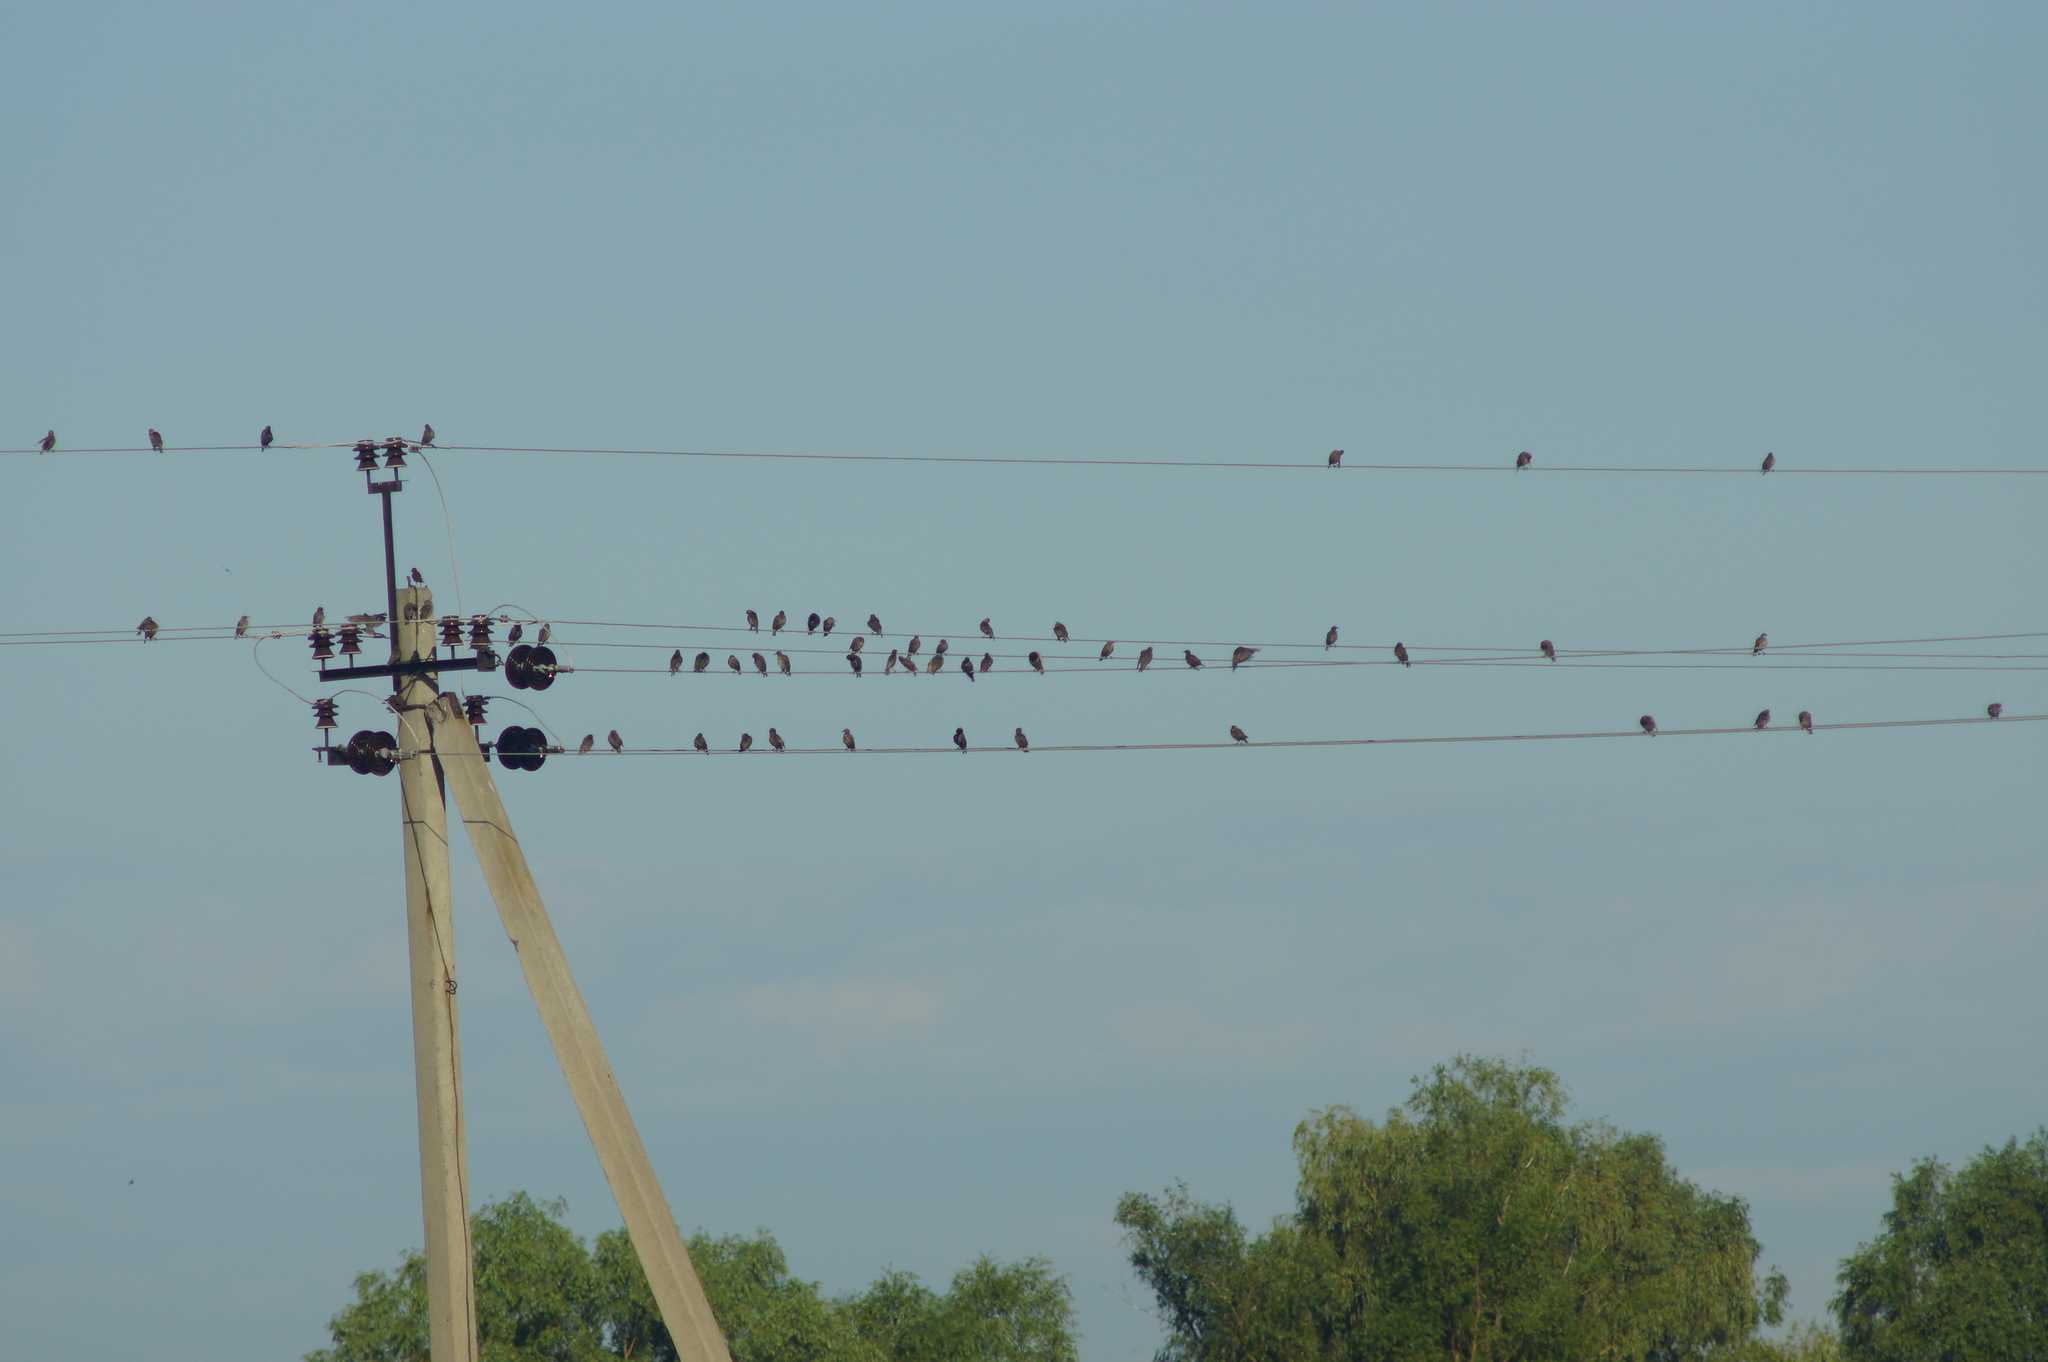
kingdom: Animalia
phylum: Chordata
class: Aves
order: Passeriformes
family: Sturnidae
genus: Sturnus
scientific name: Sturnus vulgaris
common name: Common starling
